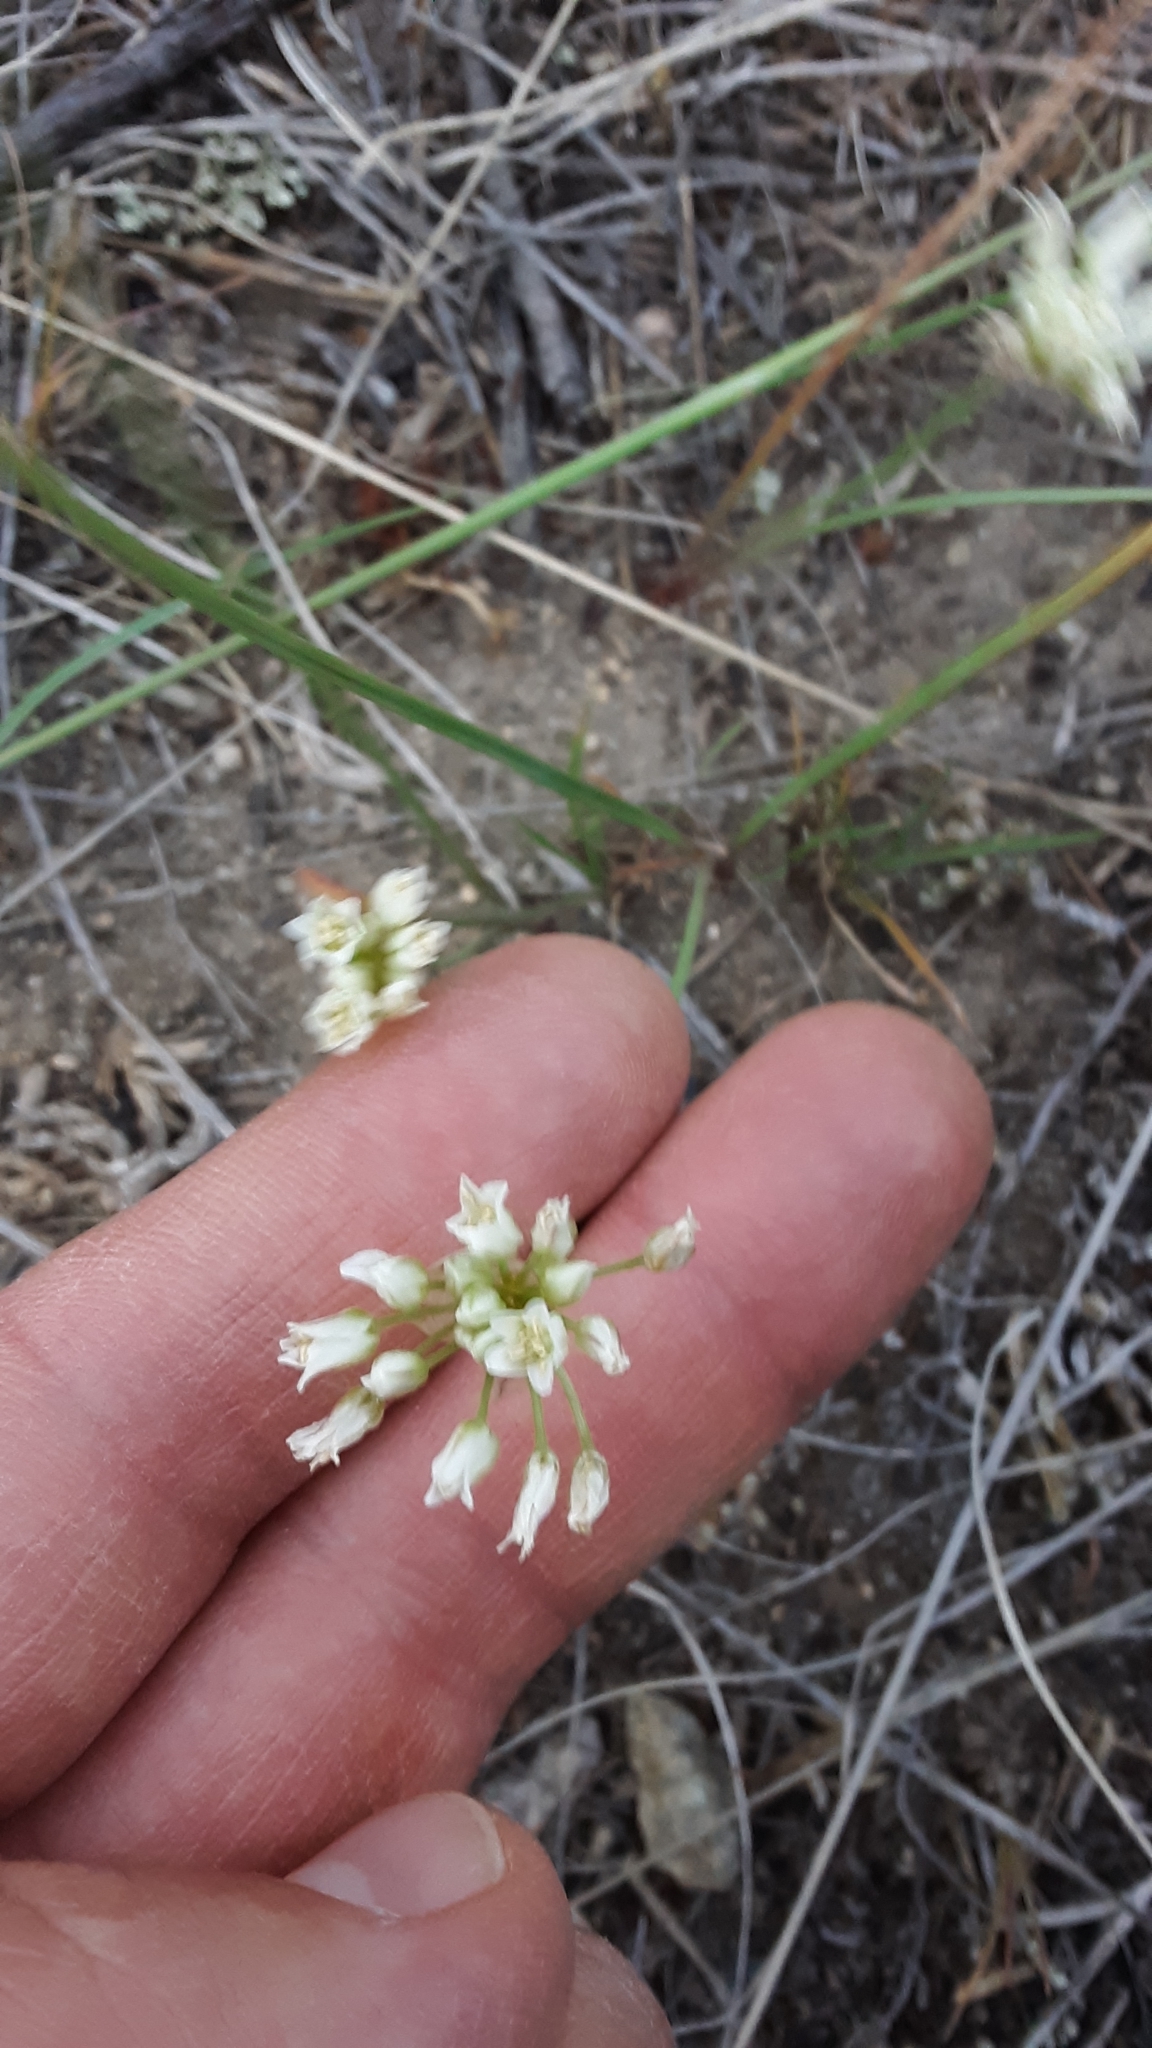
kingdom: Plantae
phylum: Tracheophyta
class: Liliopsida
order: Asparagales
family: Amaryllidaceae
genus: Allium
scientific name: Allium textile
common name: Prairie onion
